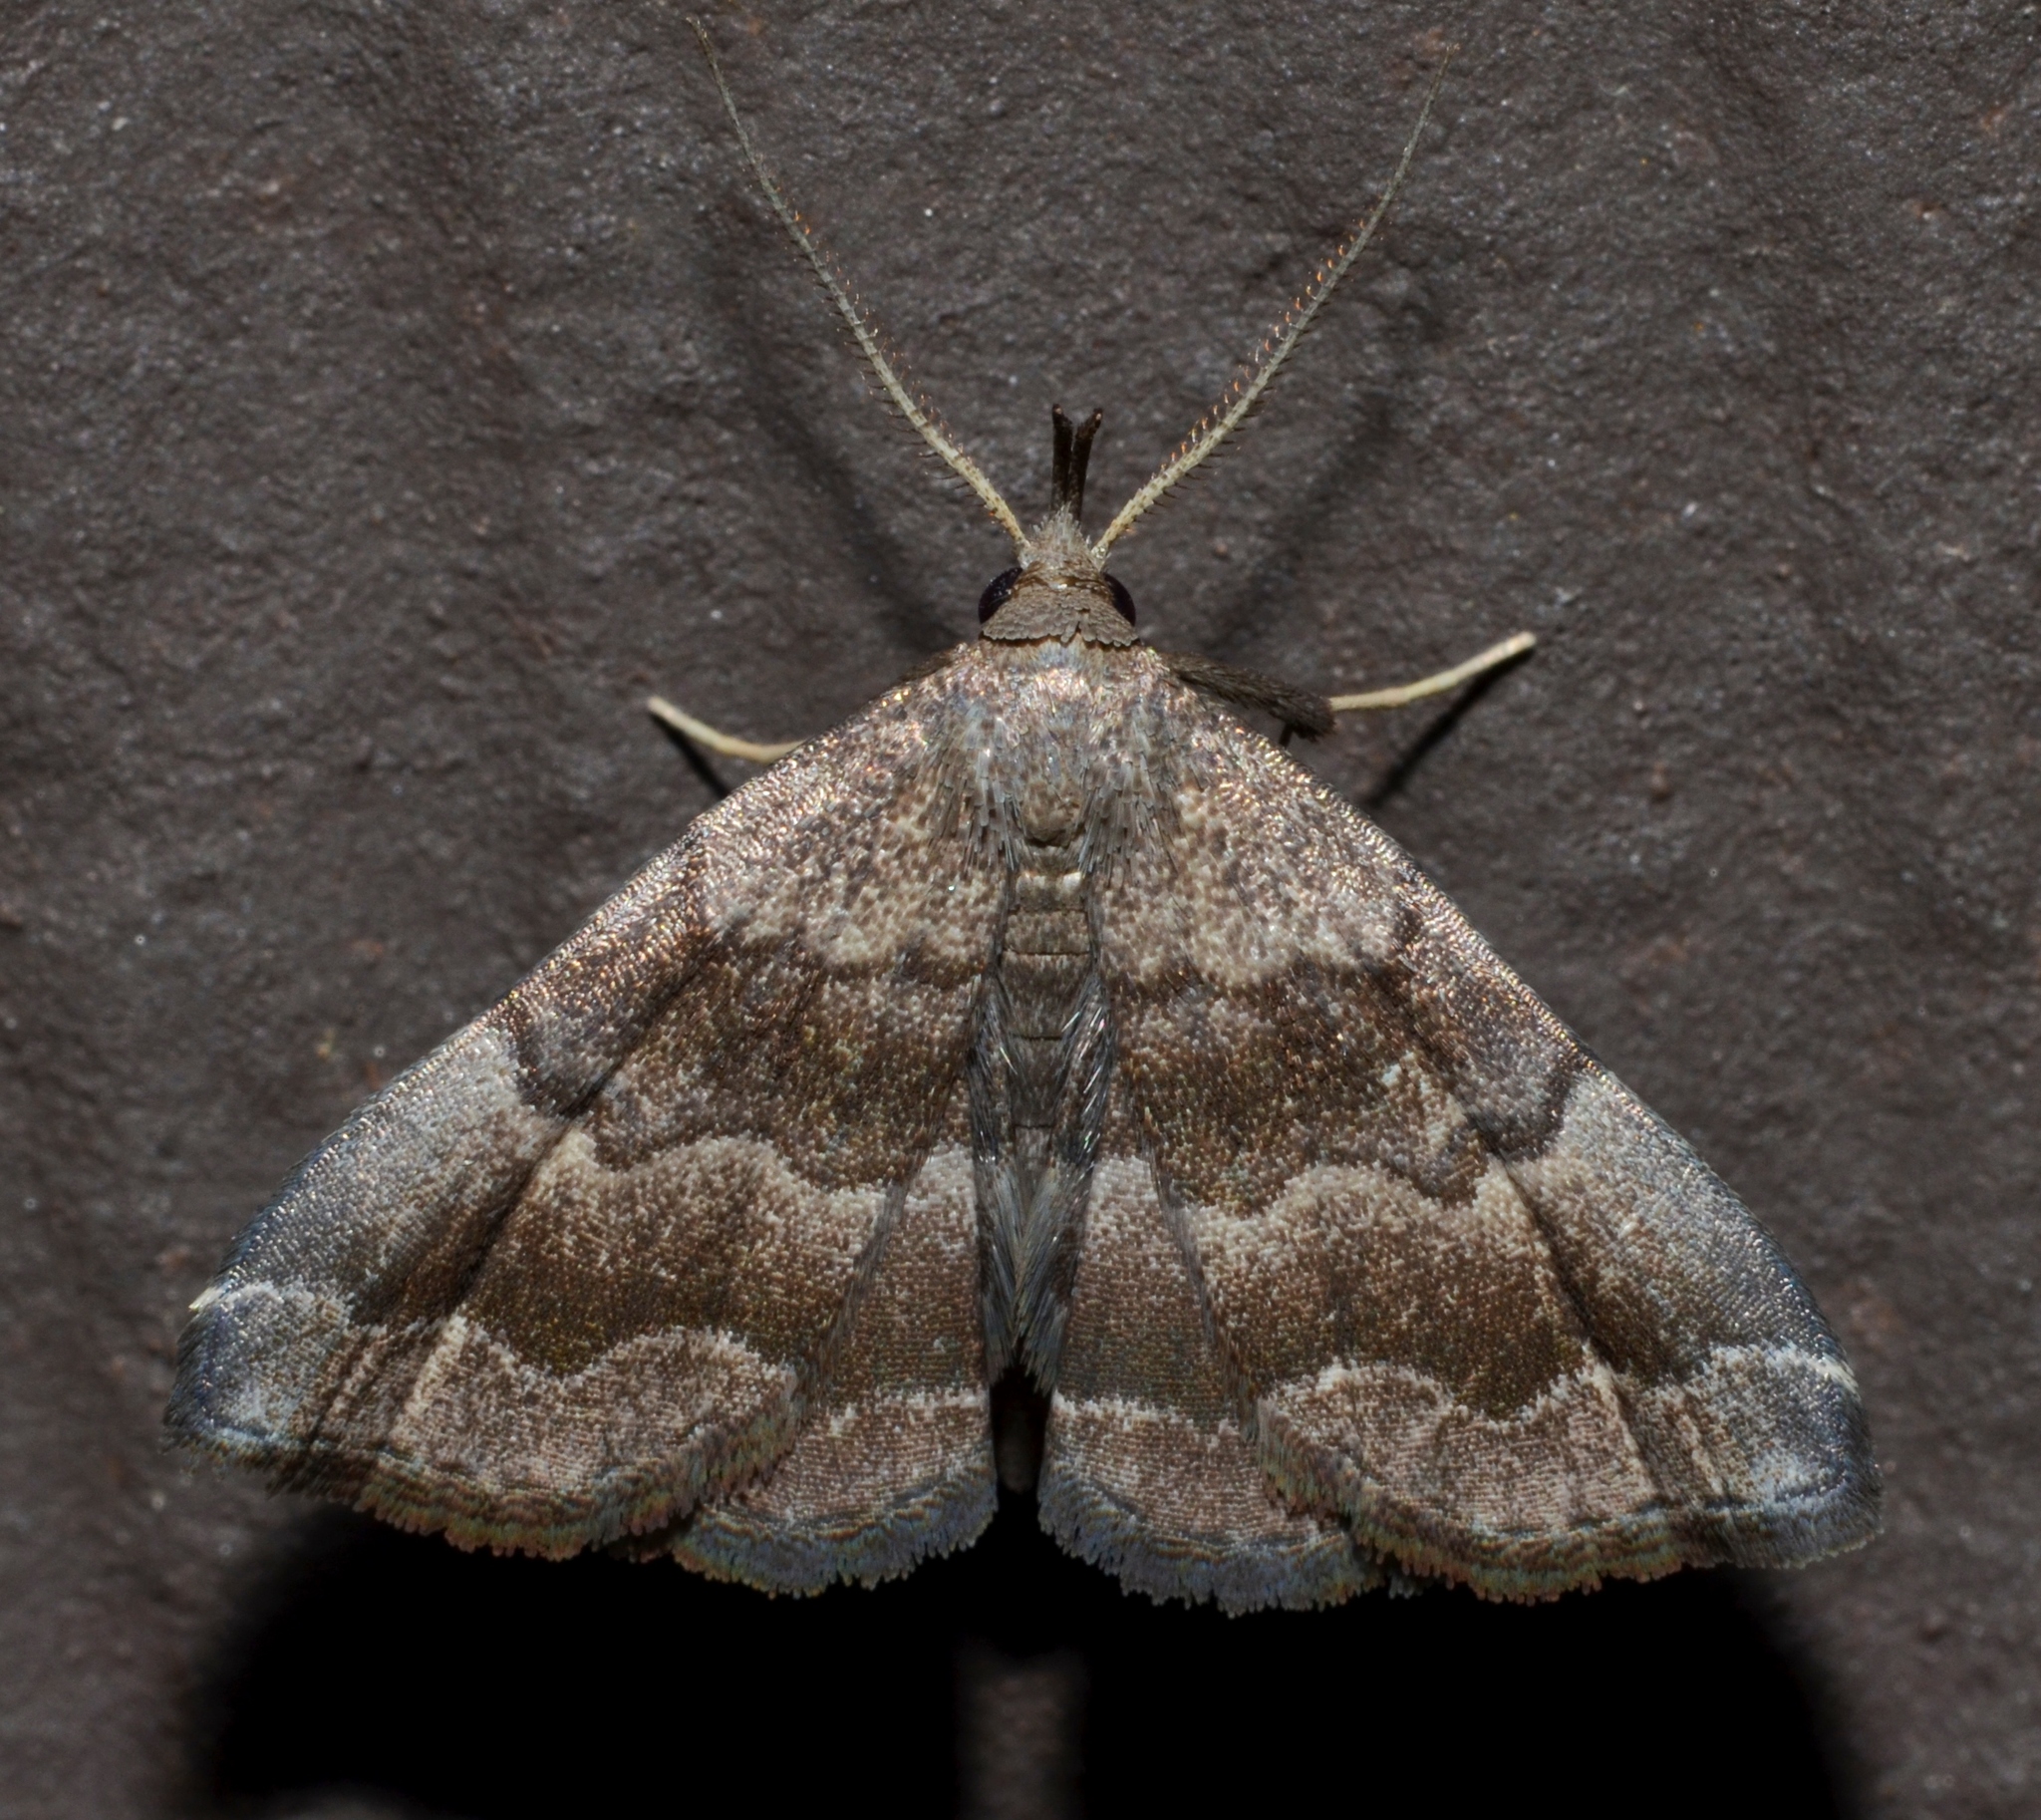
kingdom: Animalia
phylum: Arthropoda
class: Insecta
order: Lepidoptera
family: Erebidae
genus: Phalaenostola
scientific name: Phalaenostola larentioides
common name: Black-banded owlet
